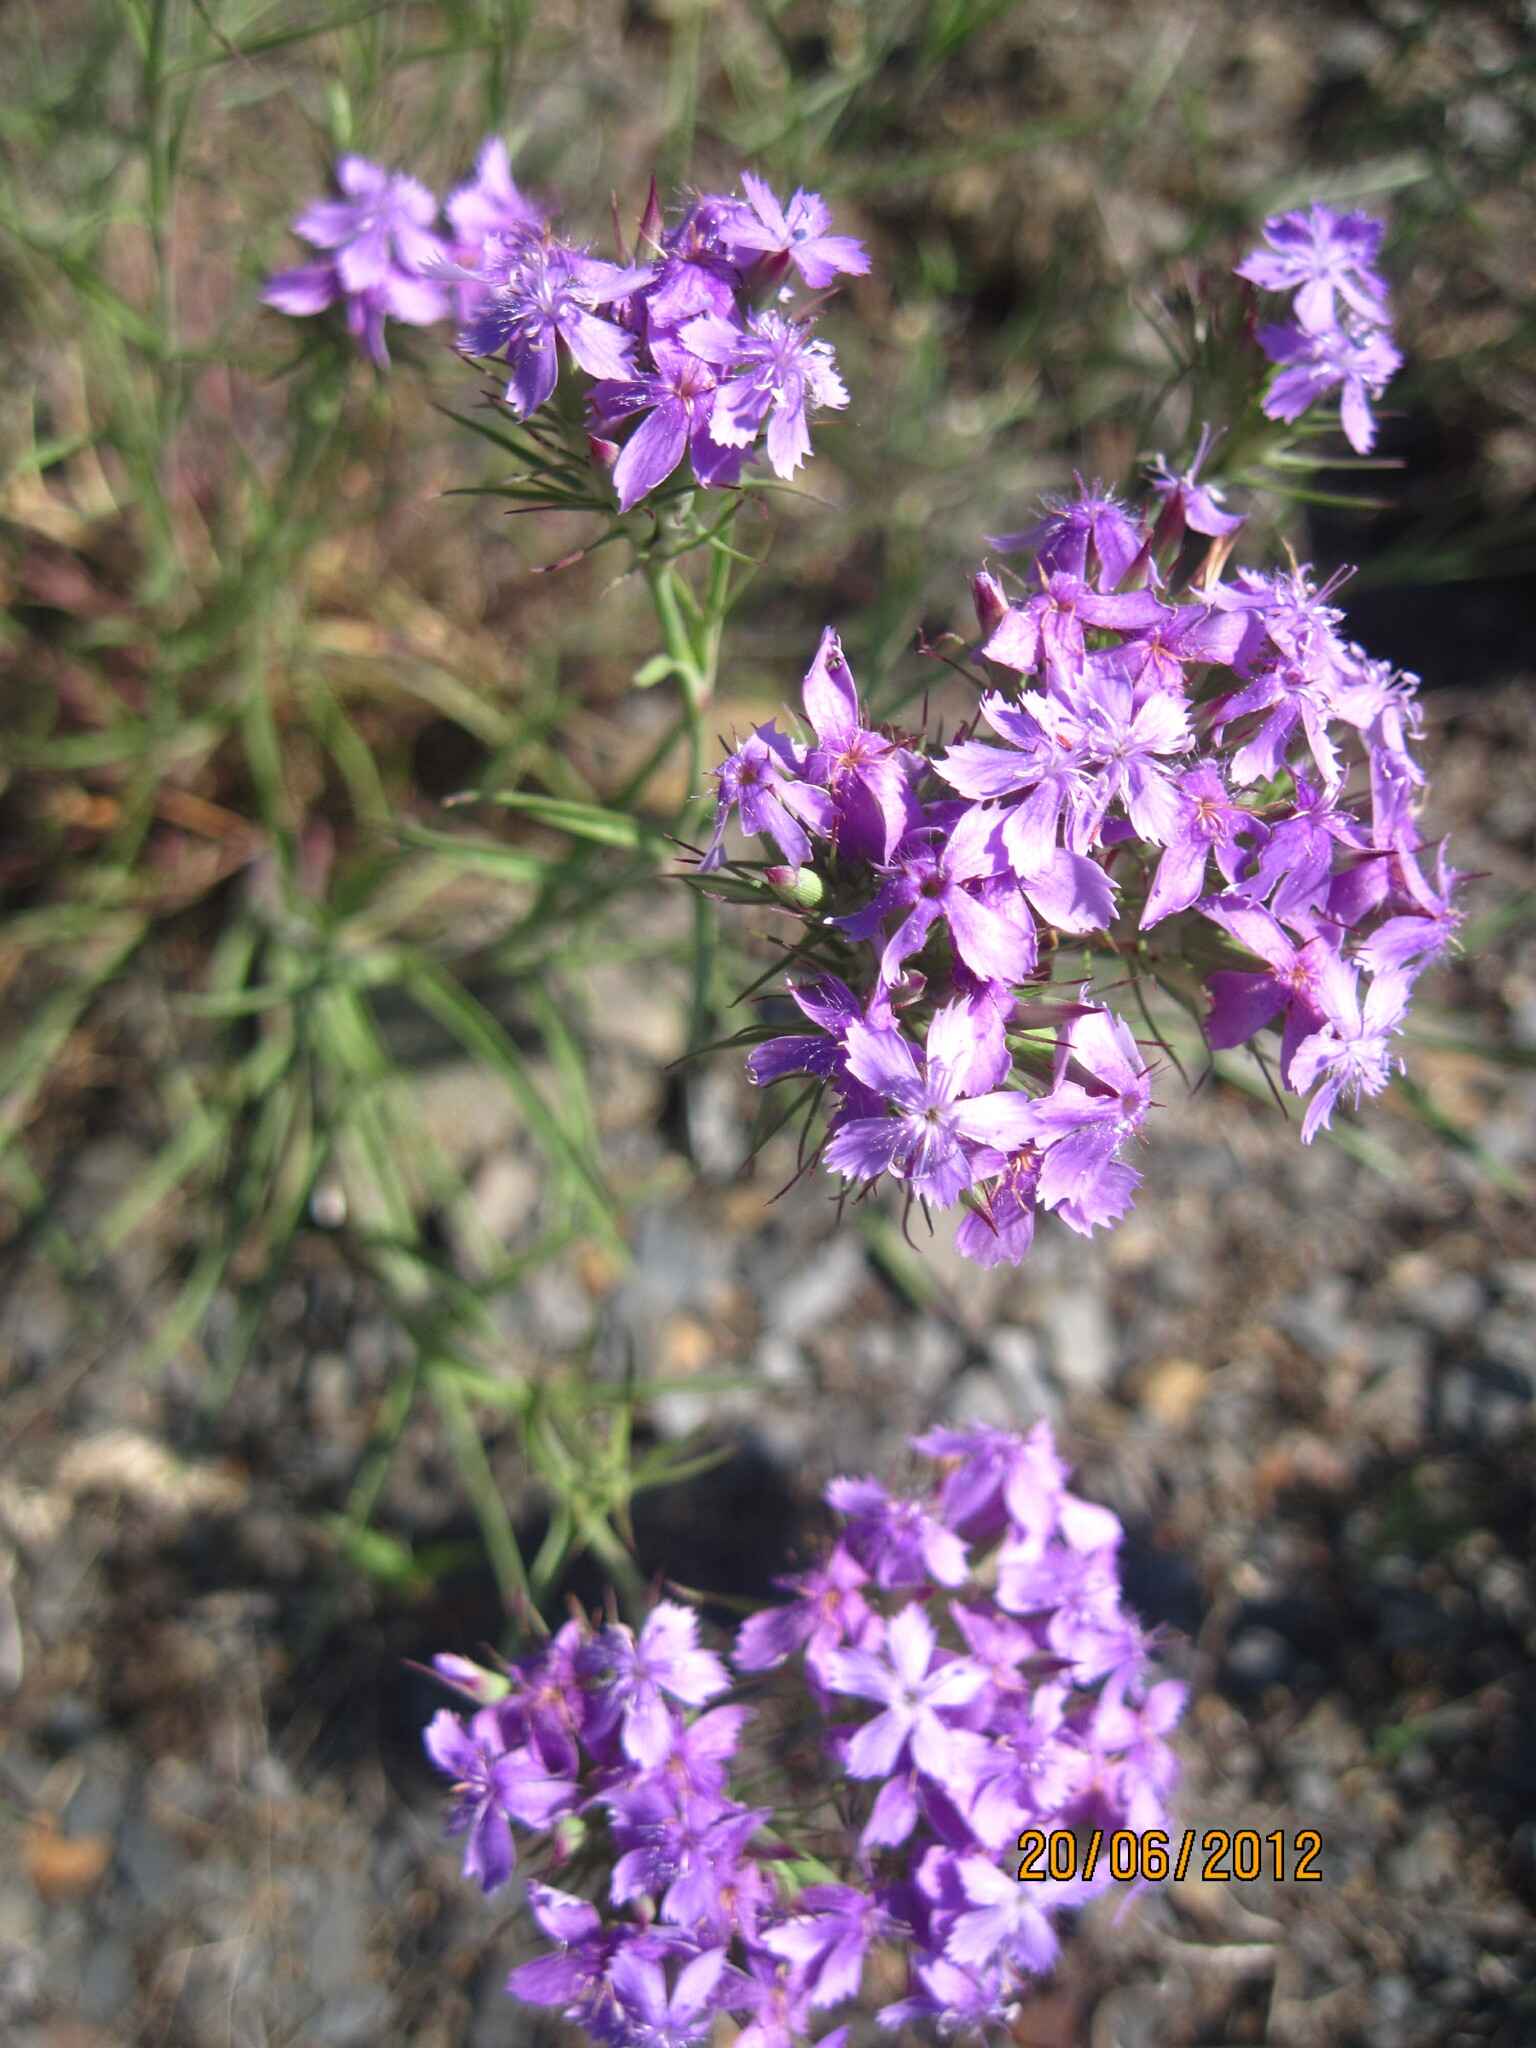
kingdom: Plantae
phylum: Tracheophyta
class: Magnoliopsida
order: Caryophyllales
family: Caryophyllaceae
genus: Dianthus
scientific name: Dianthus pseudarmeria
